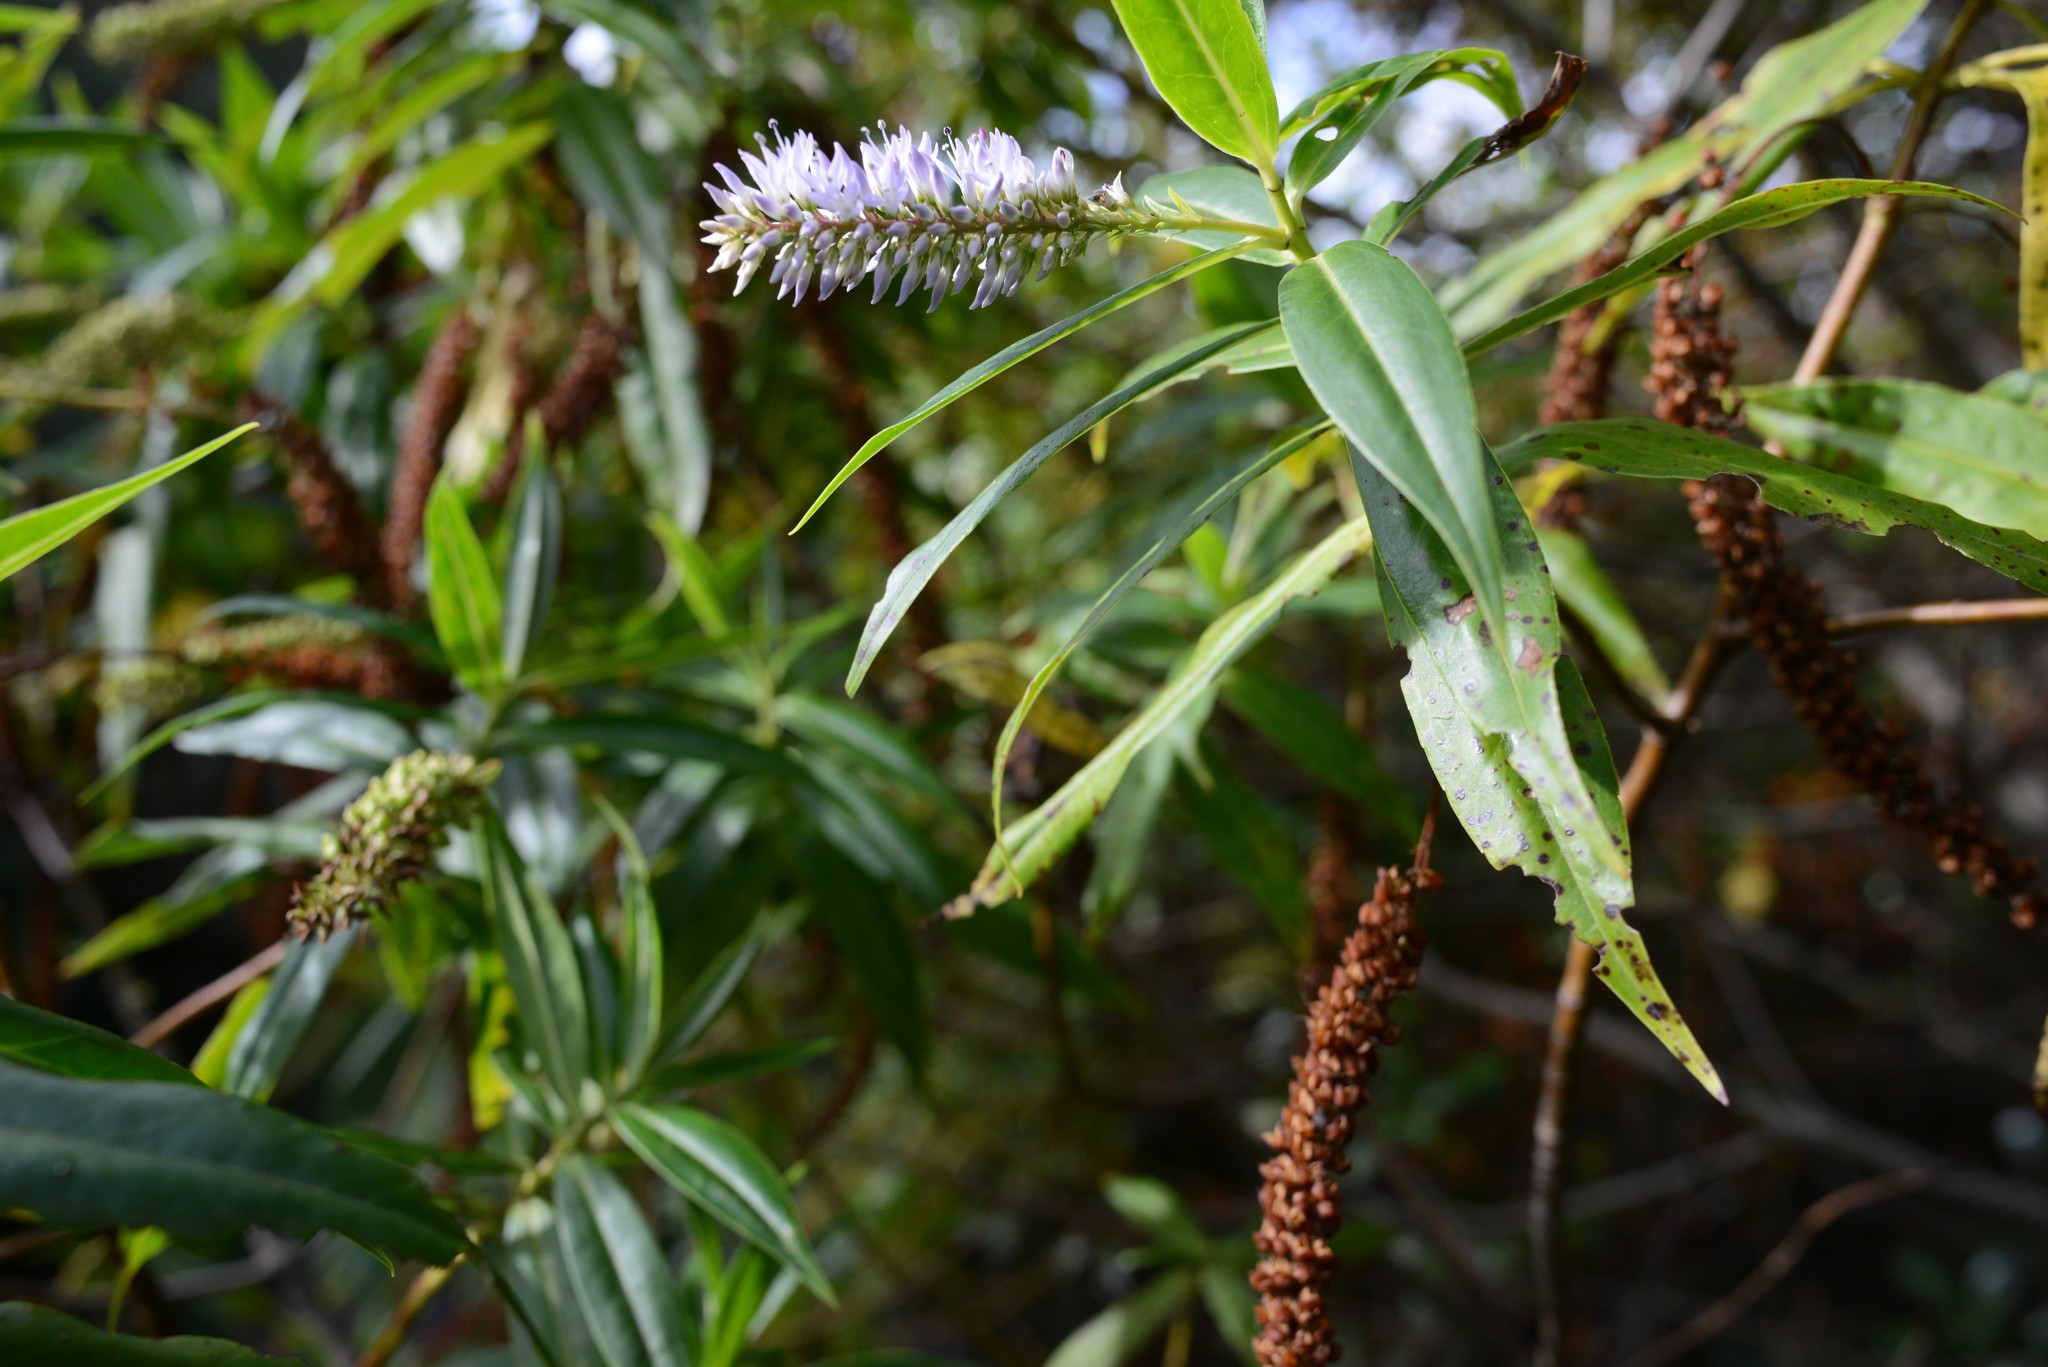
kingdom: Plantae
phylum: Tracheophyta
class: Magnoliopsida
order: Lamiales
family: Plantaginaceae
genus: Veronica
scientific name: Veronica salicifolia
